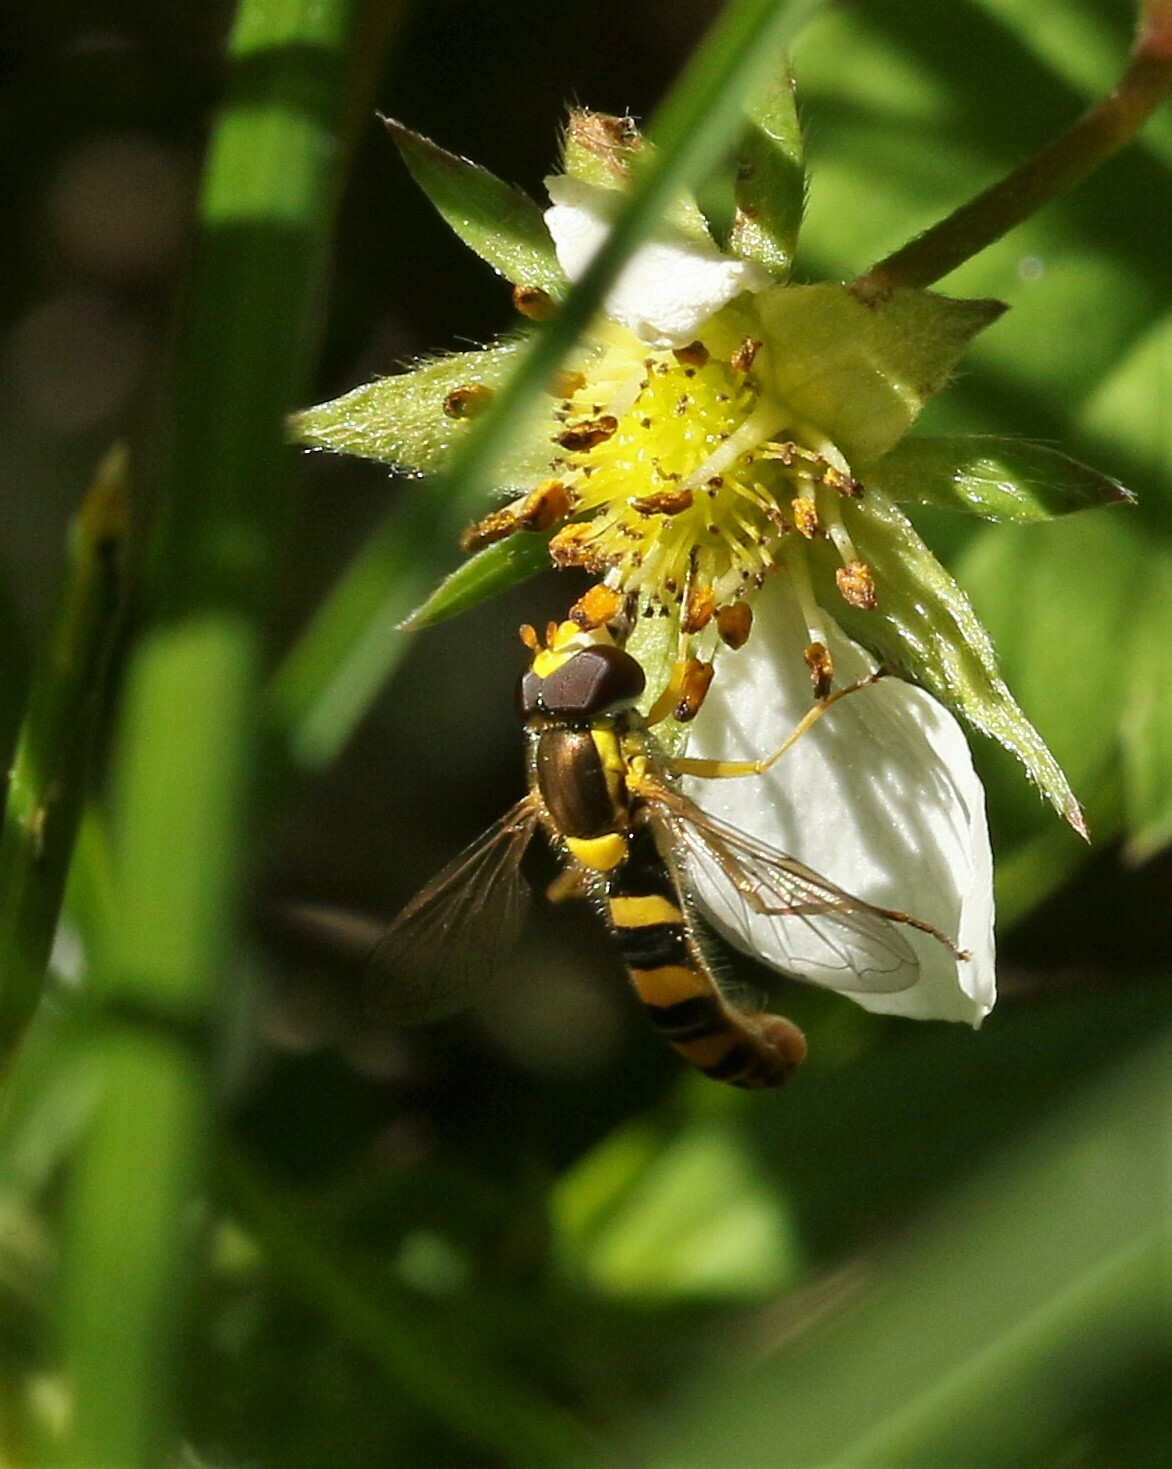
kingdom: Animalia
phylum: Arthropoda
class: Insecta
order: Diptera
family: Syrphidae
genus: Sphaerophoria
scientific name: Sphaerophoria philantha
